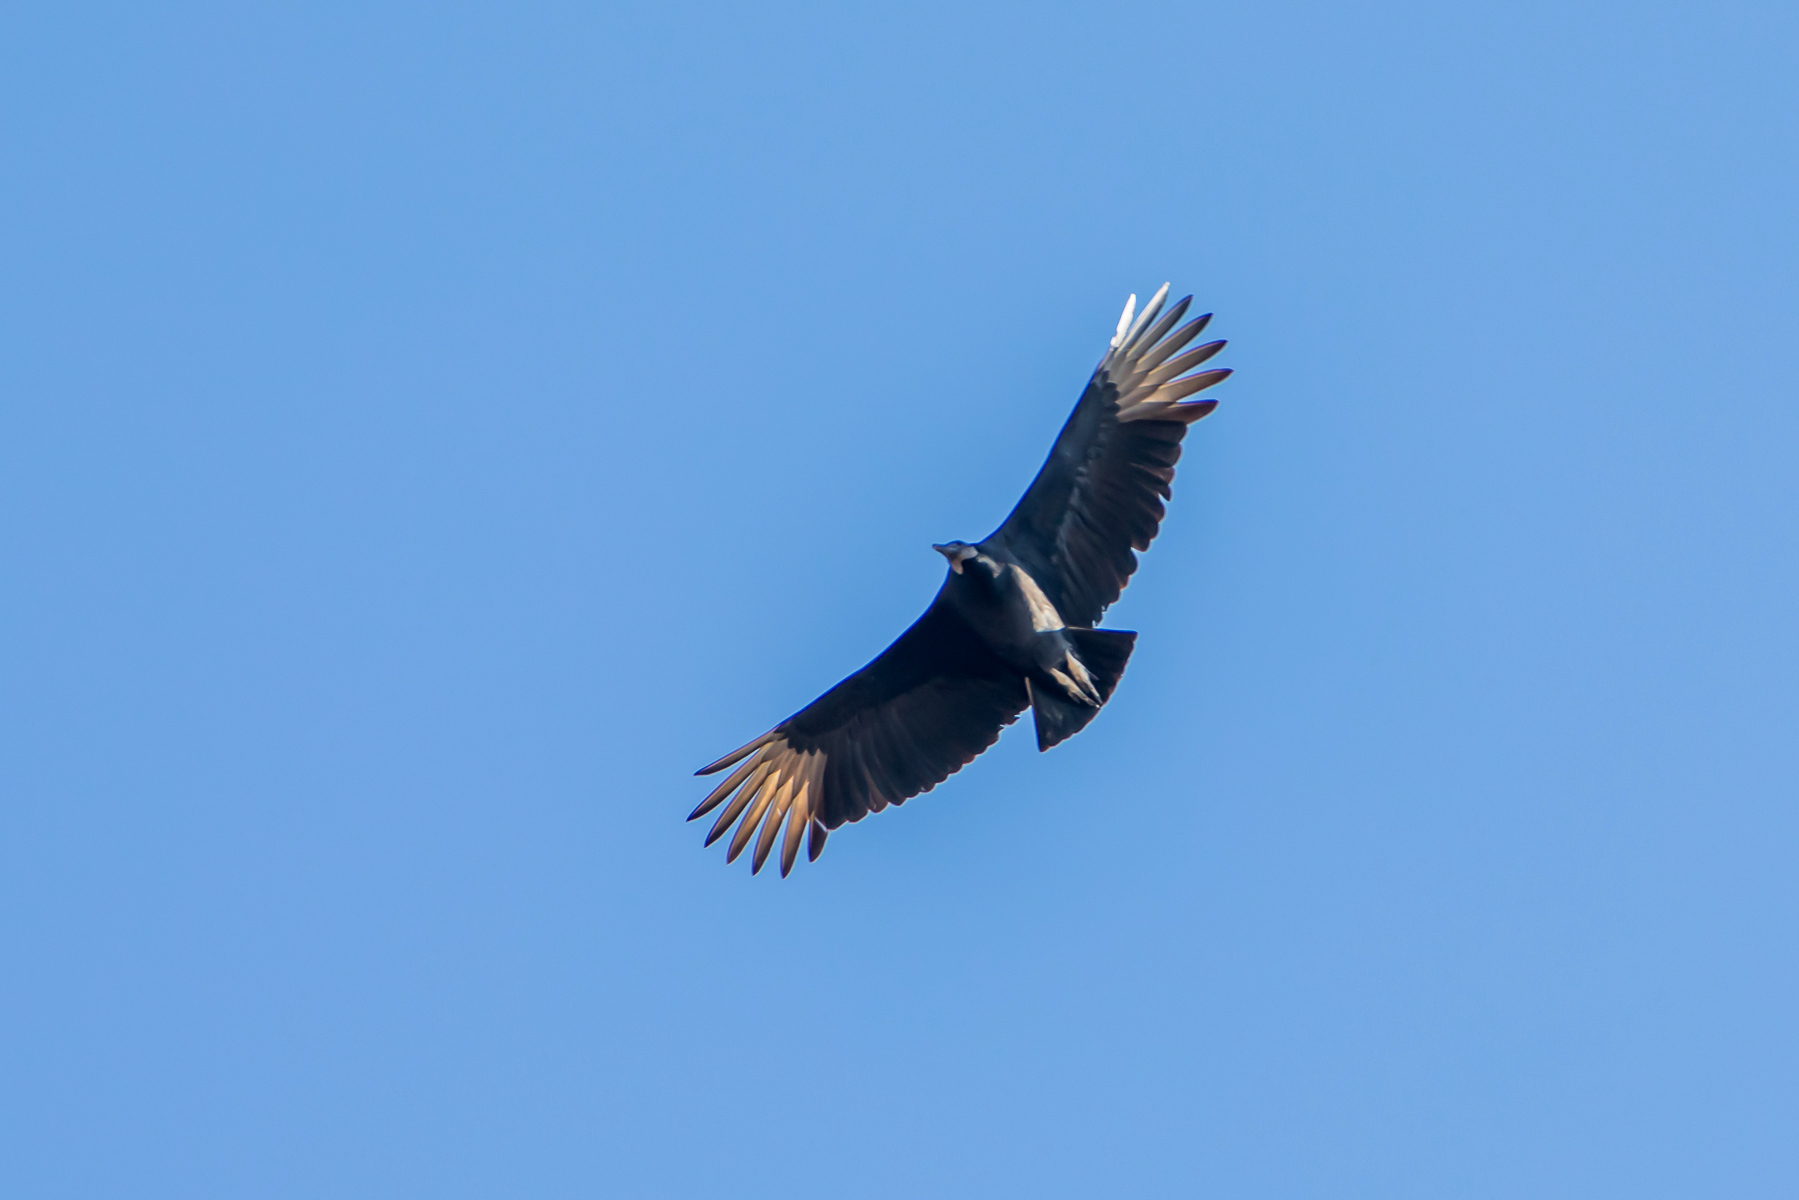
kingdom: Animalia
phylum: Chordata
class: Aves
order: Accipitriformes
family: Cathartidae
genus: Coragyps
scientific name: Coragyps atratus
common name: Black vulture
